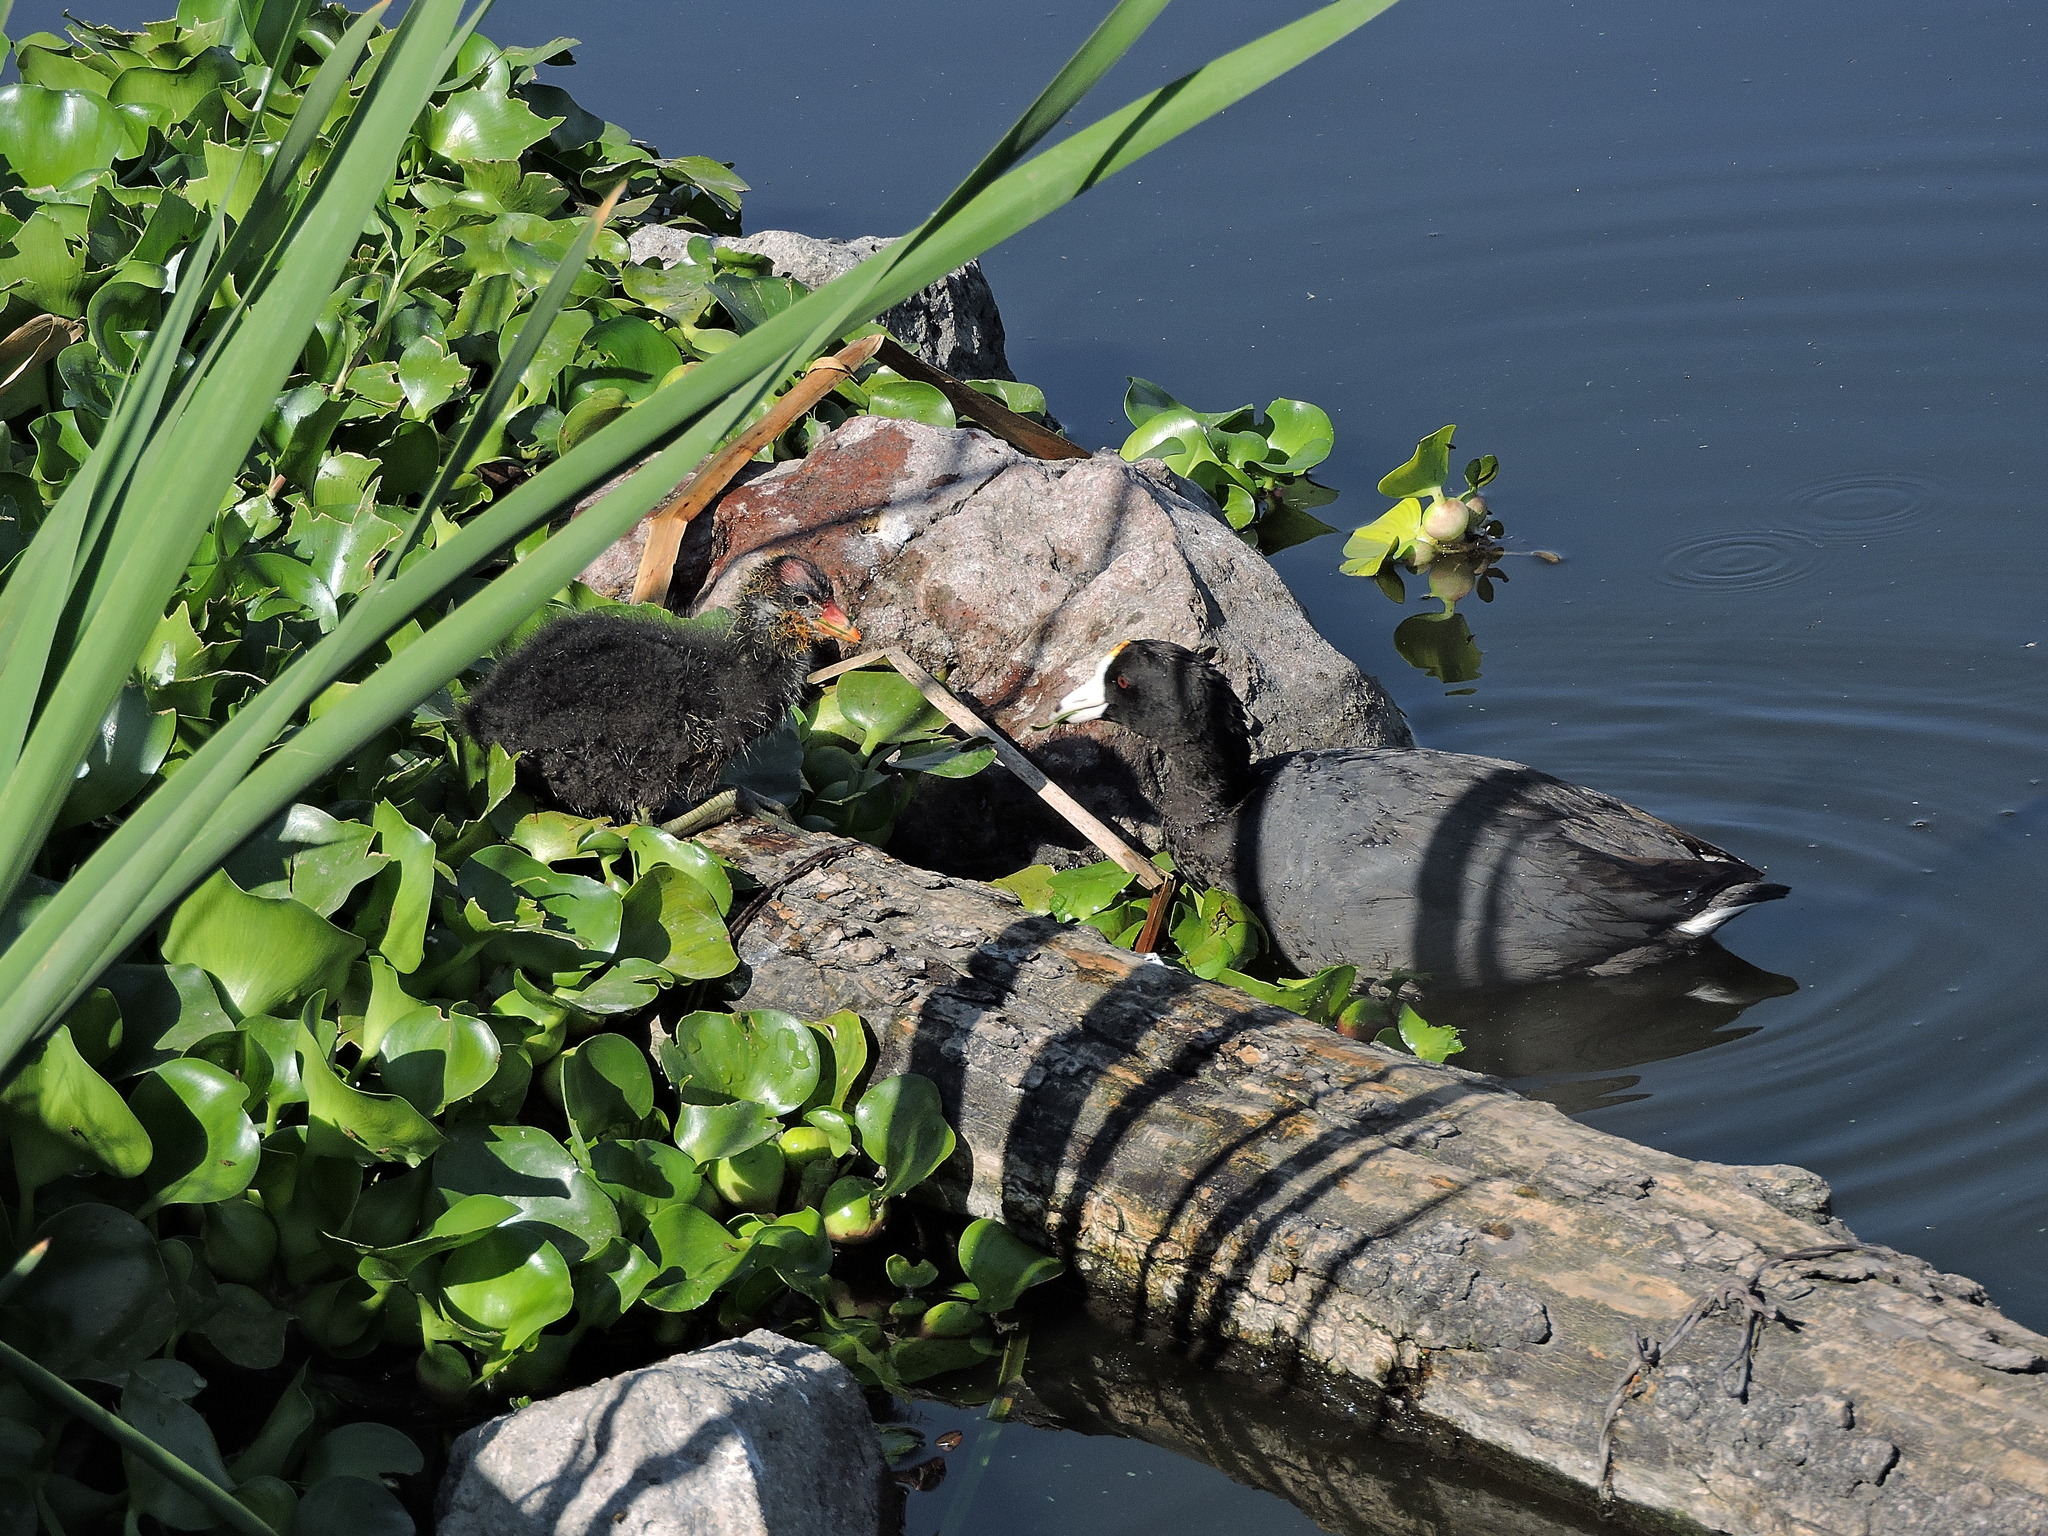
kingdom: Animalia
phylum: Chordata
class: Aves
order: Gruiformes
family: Rallidae
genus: Fulica
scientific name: Fulica americana
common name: American coot
